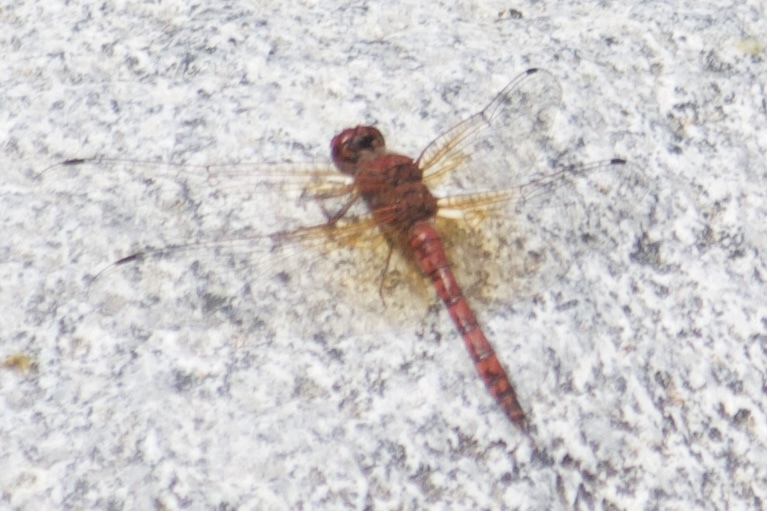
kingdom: Animalia
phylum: Arthropoda
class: Insecta
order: Odonata
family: Libellulidae
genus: Paltothemis
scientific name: Paltothemis lineatipes
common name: Red rock skimmer
